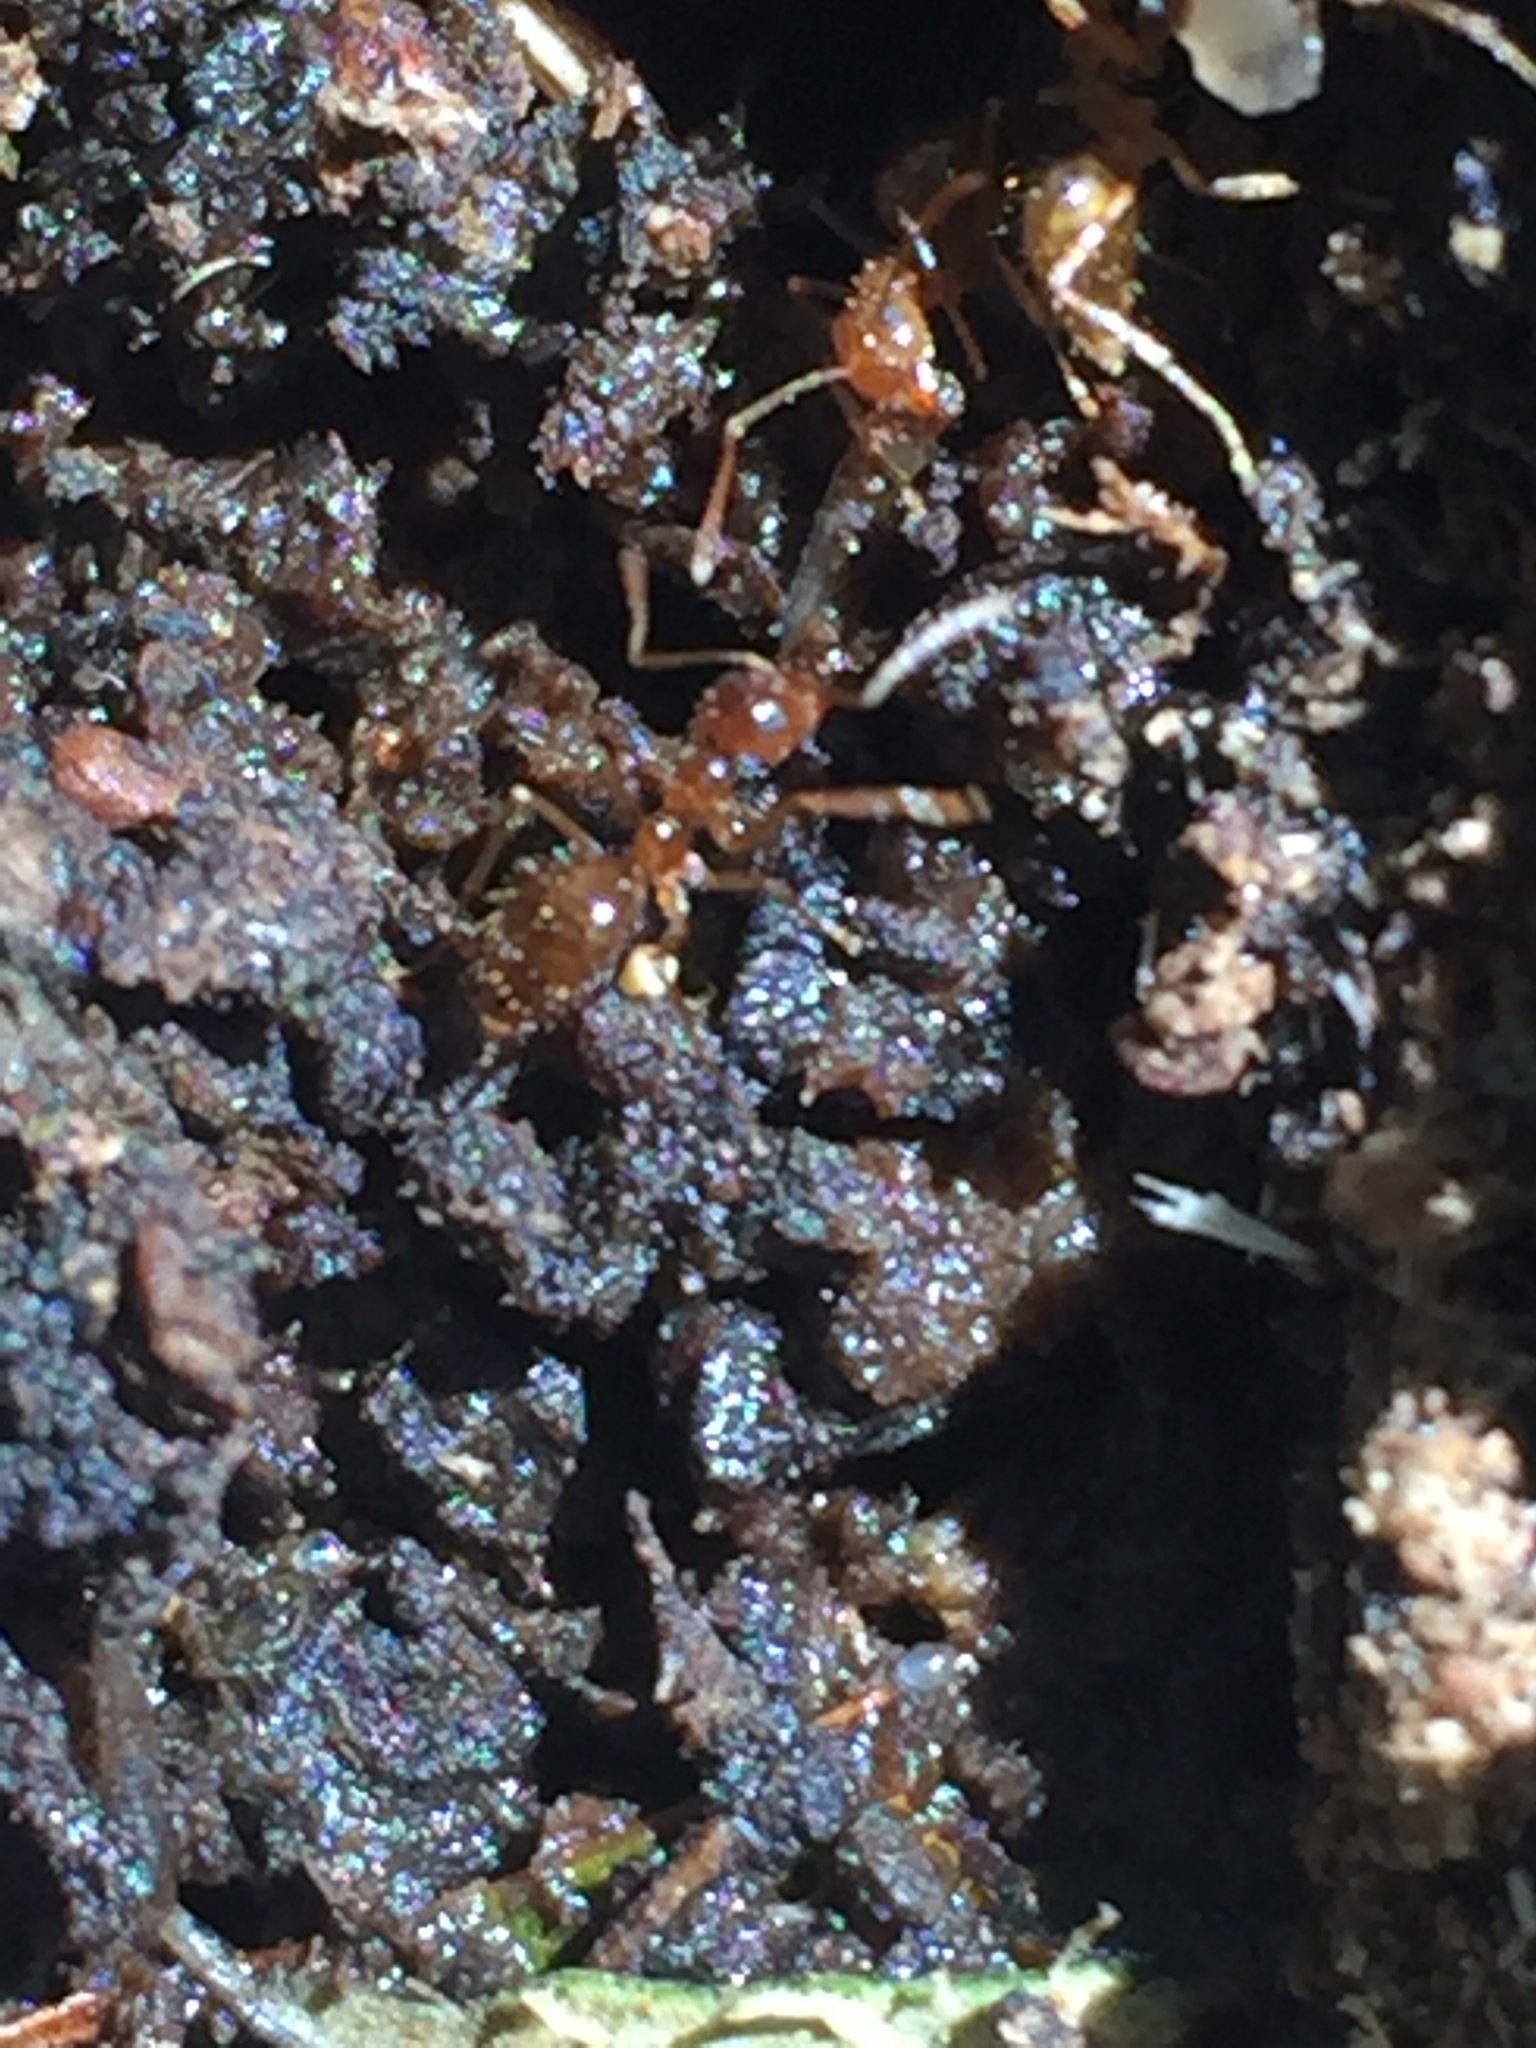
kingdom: Animalia
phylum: Arthropoda
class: Insecta
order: Hymenoptera
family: Formicidae
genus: Prenolepis
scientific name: Prenolepis imparis
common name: Small honey ant
